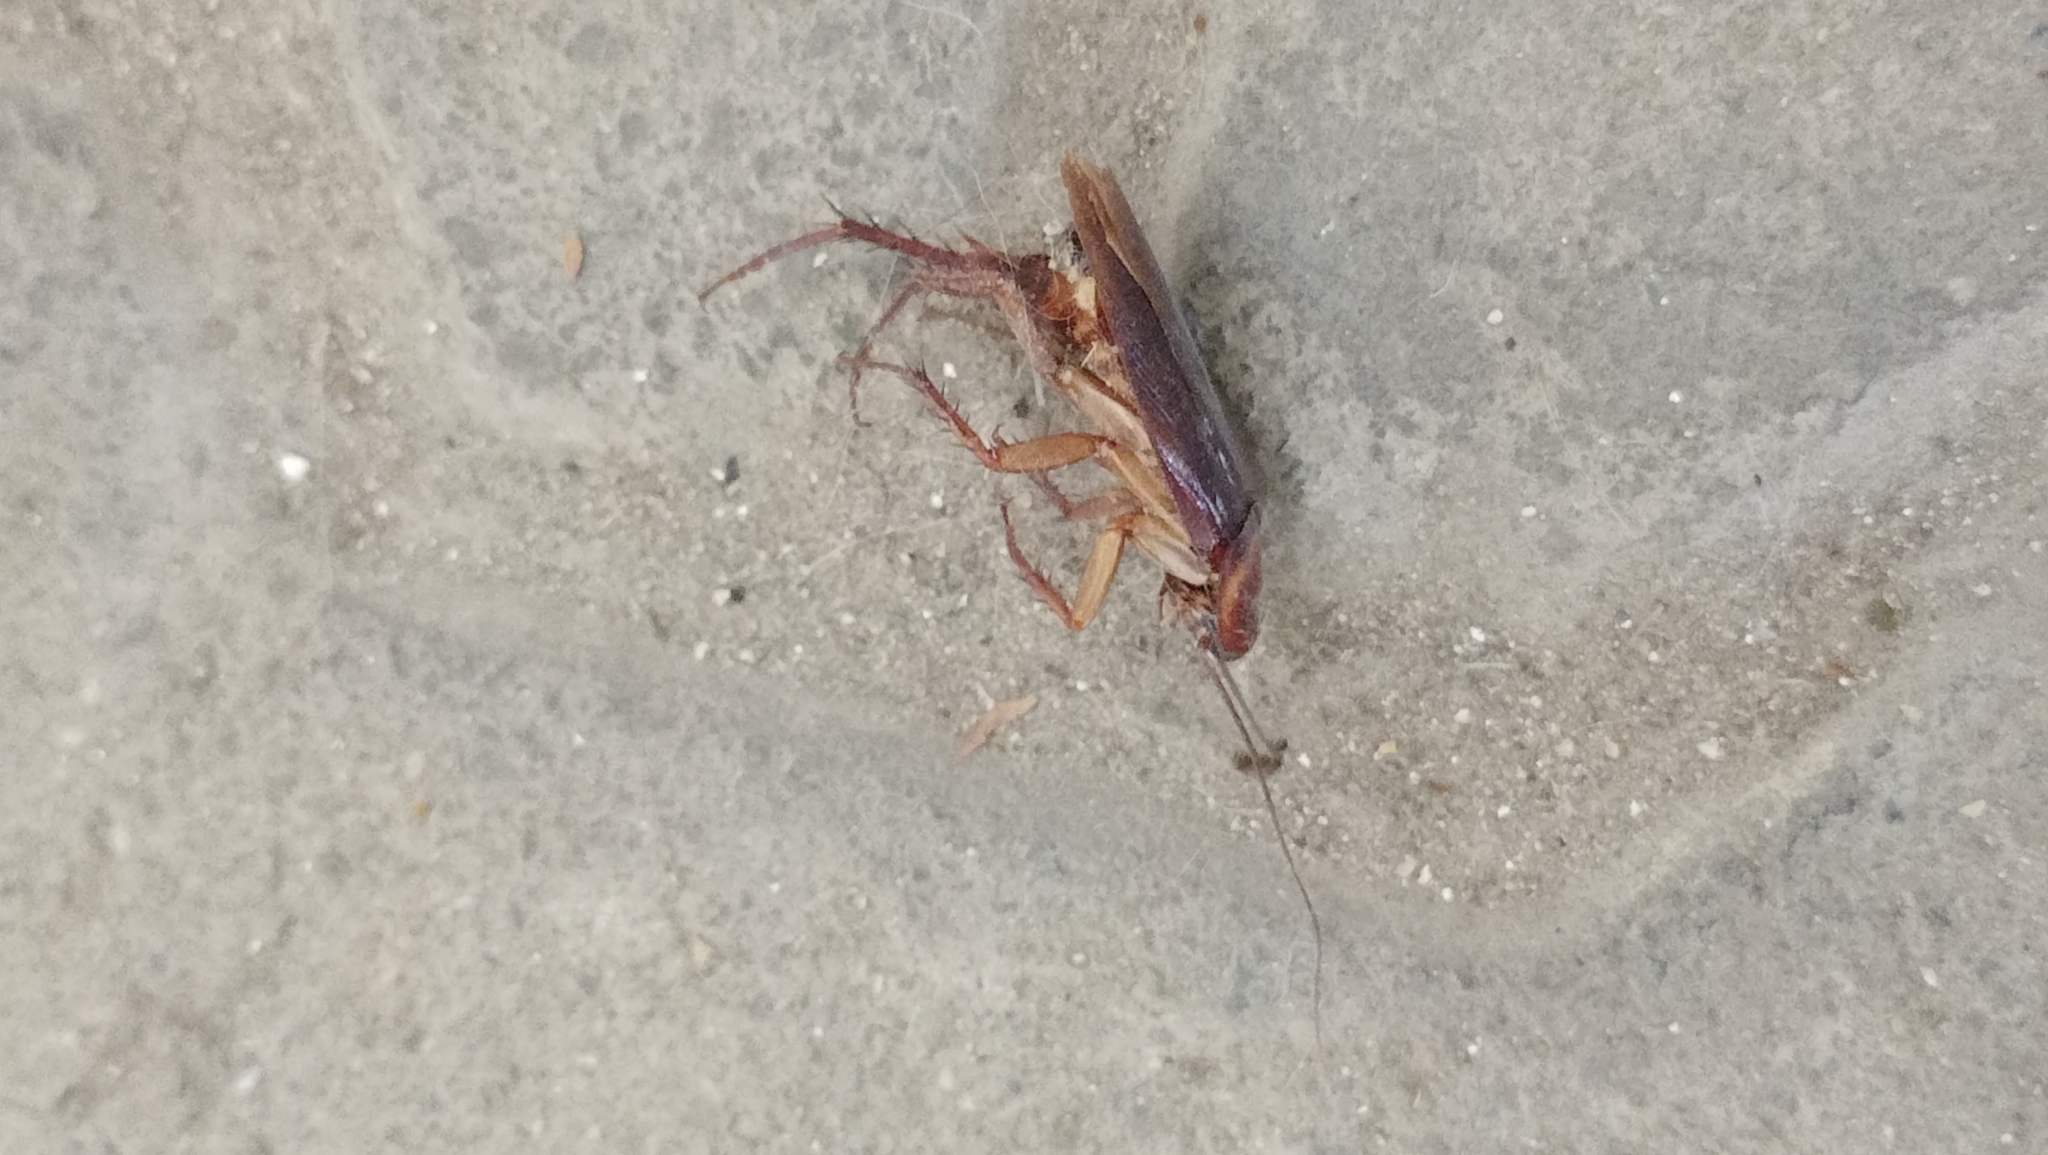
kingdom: Animalia
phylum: Arthropoda
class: Insecta
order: Blattodea
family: Blattidae
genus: Periplaneta
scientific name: Periplaneta americana
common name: American cockroach
